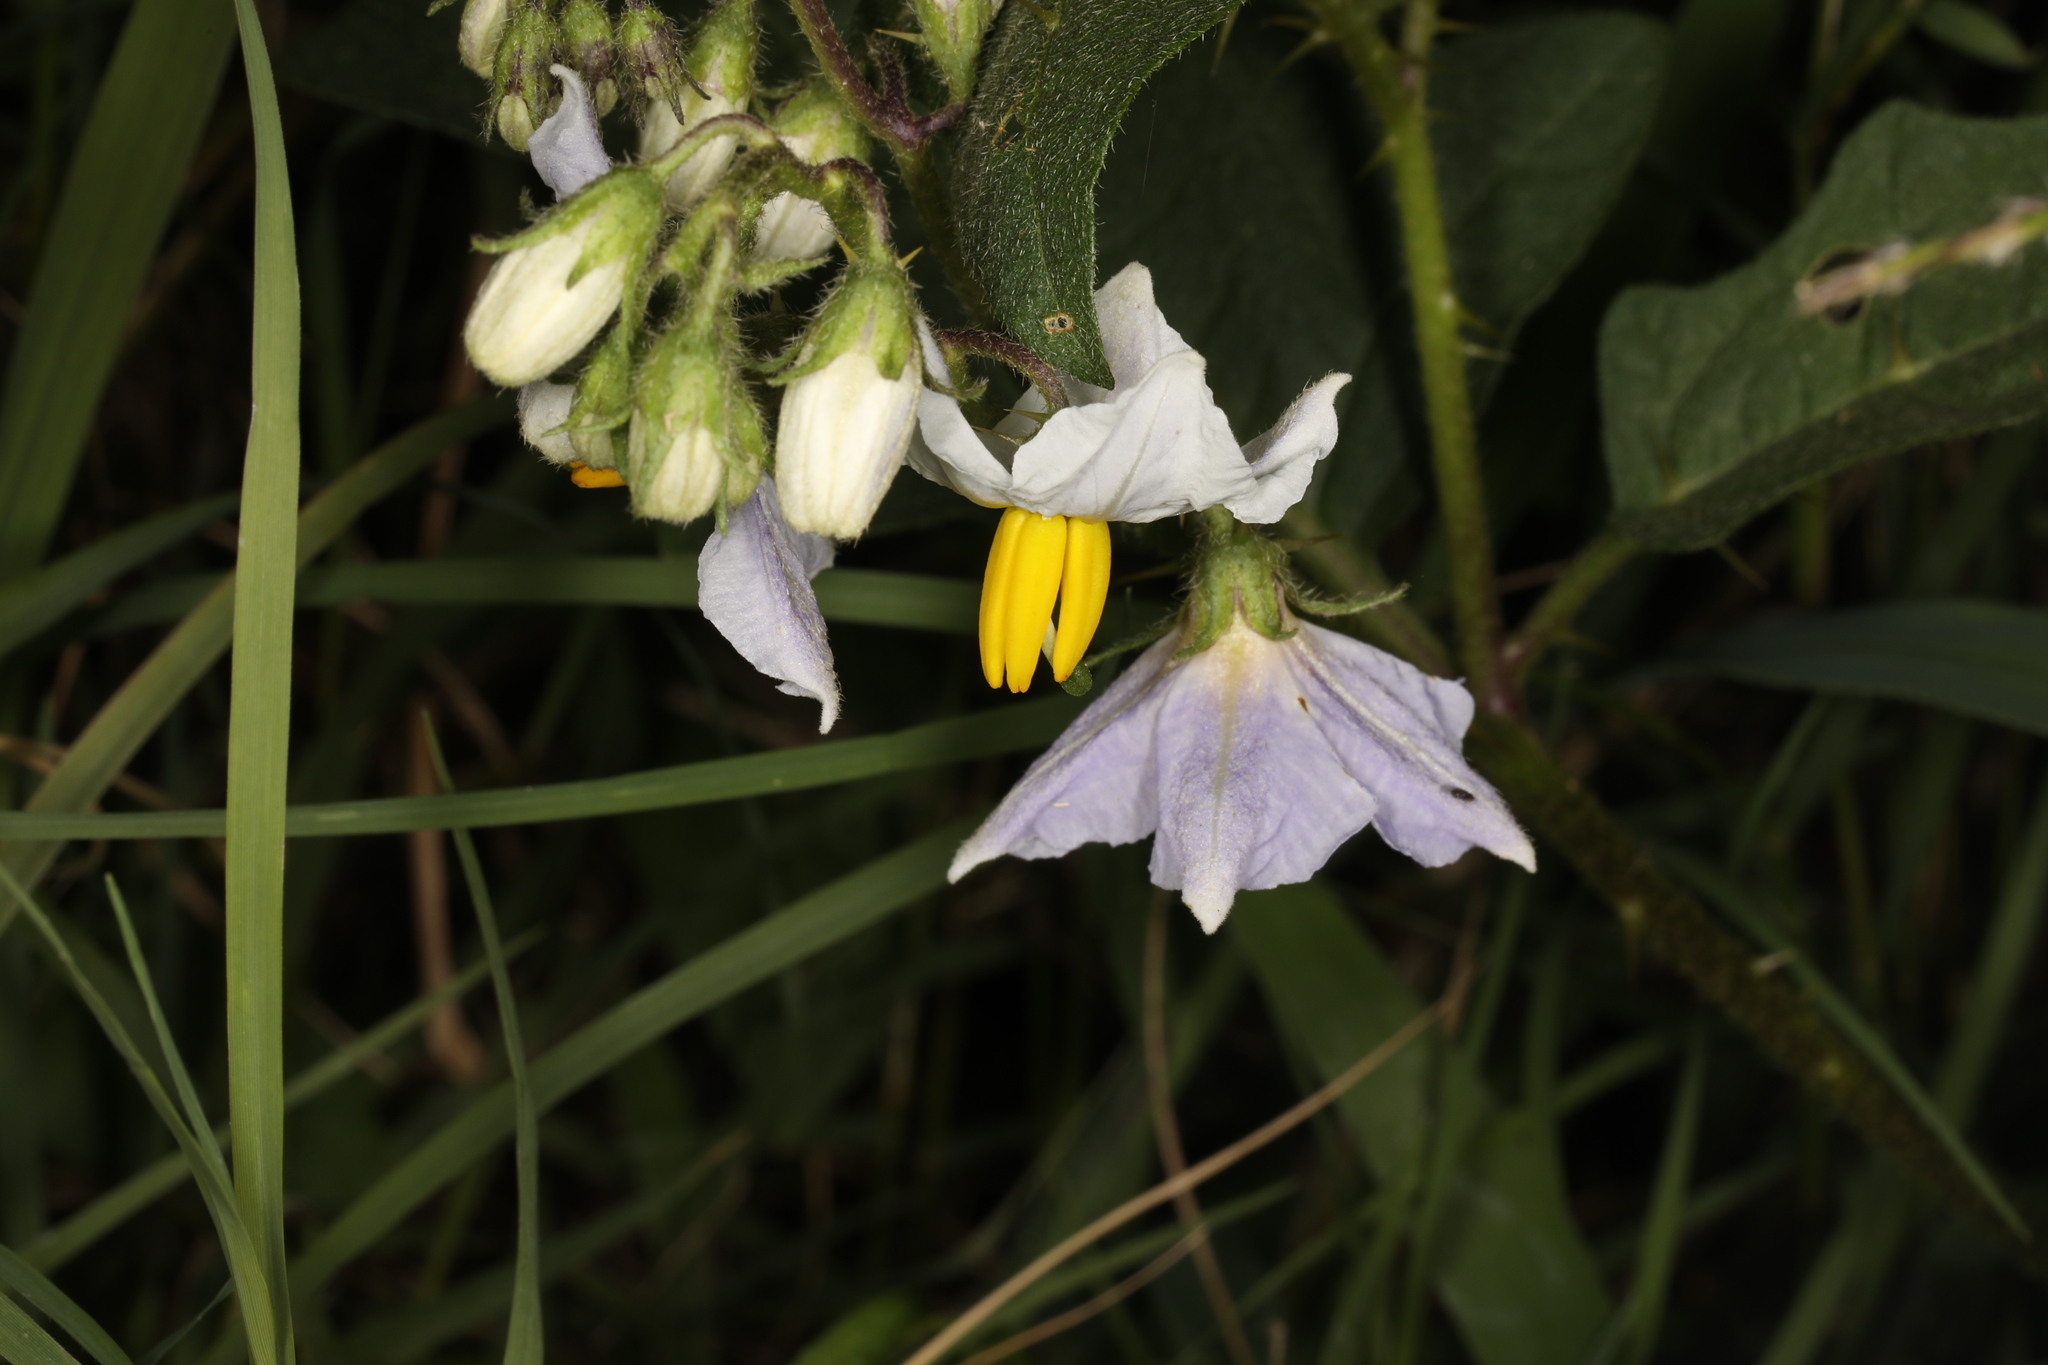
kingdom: Plantae
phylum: Tracheophyta
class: Magnoliopsida
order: Solanales
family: Solanaceae
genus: Solanum
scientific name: Solanum carolinense
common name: Horse-nettle
